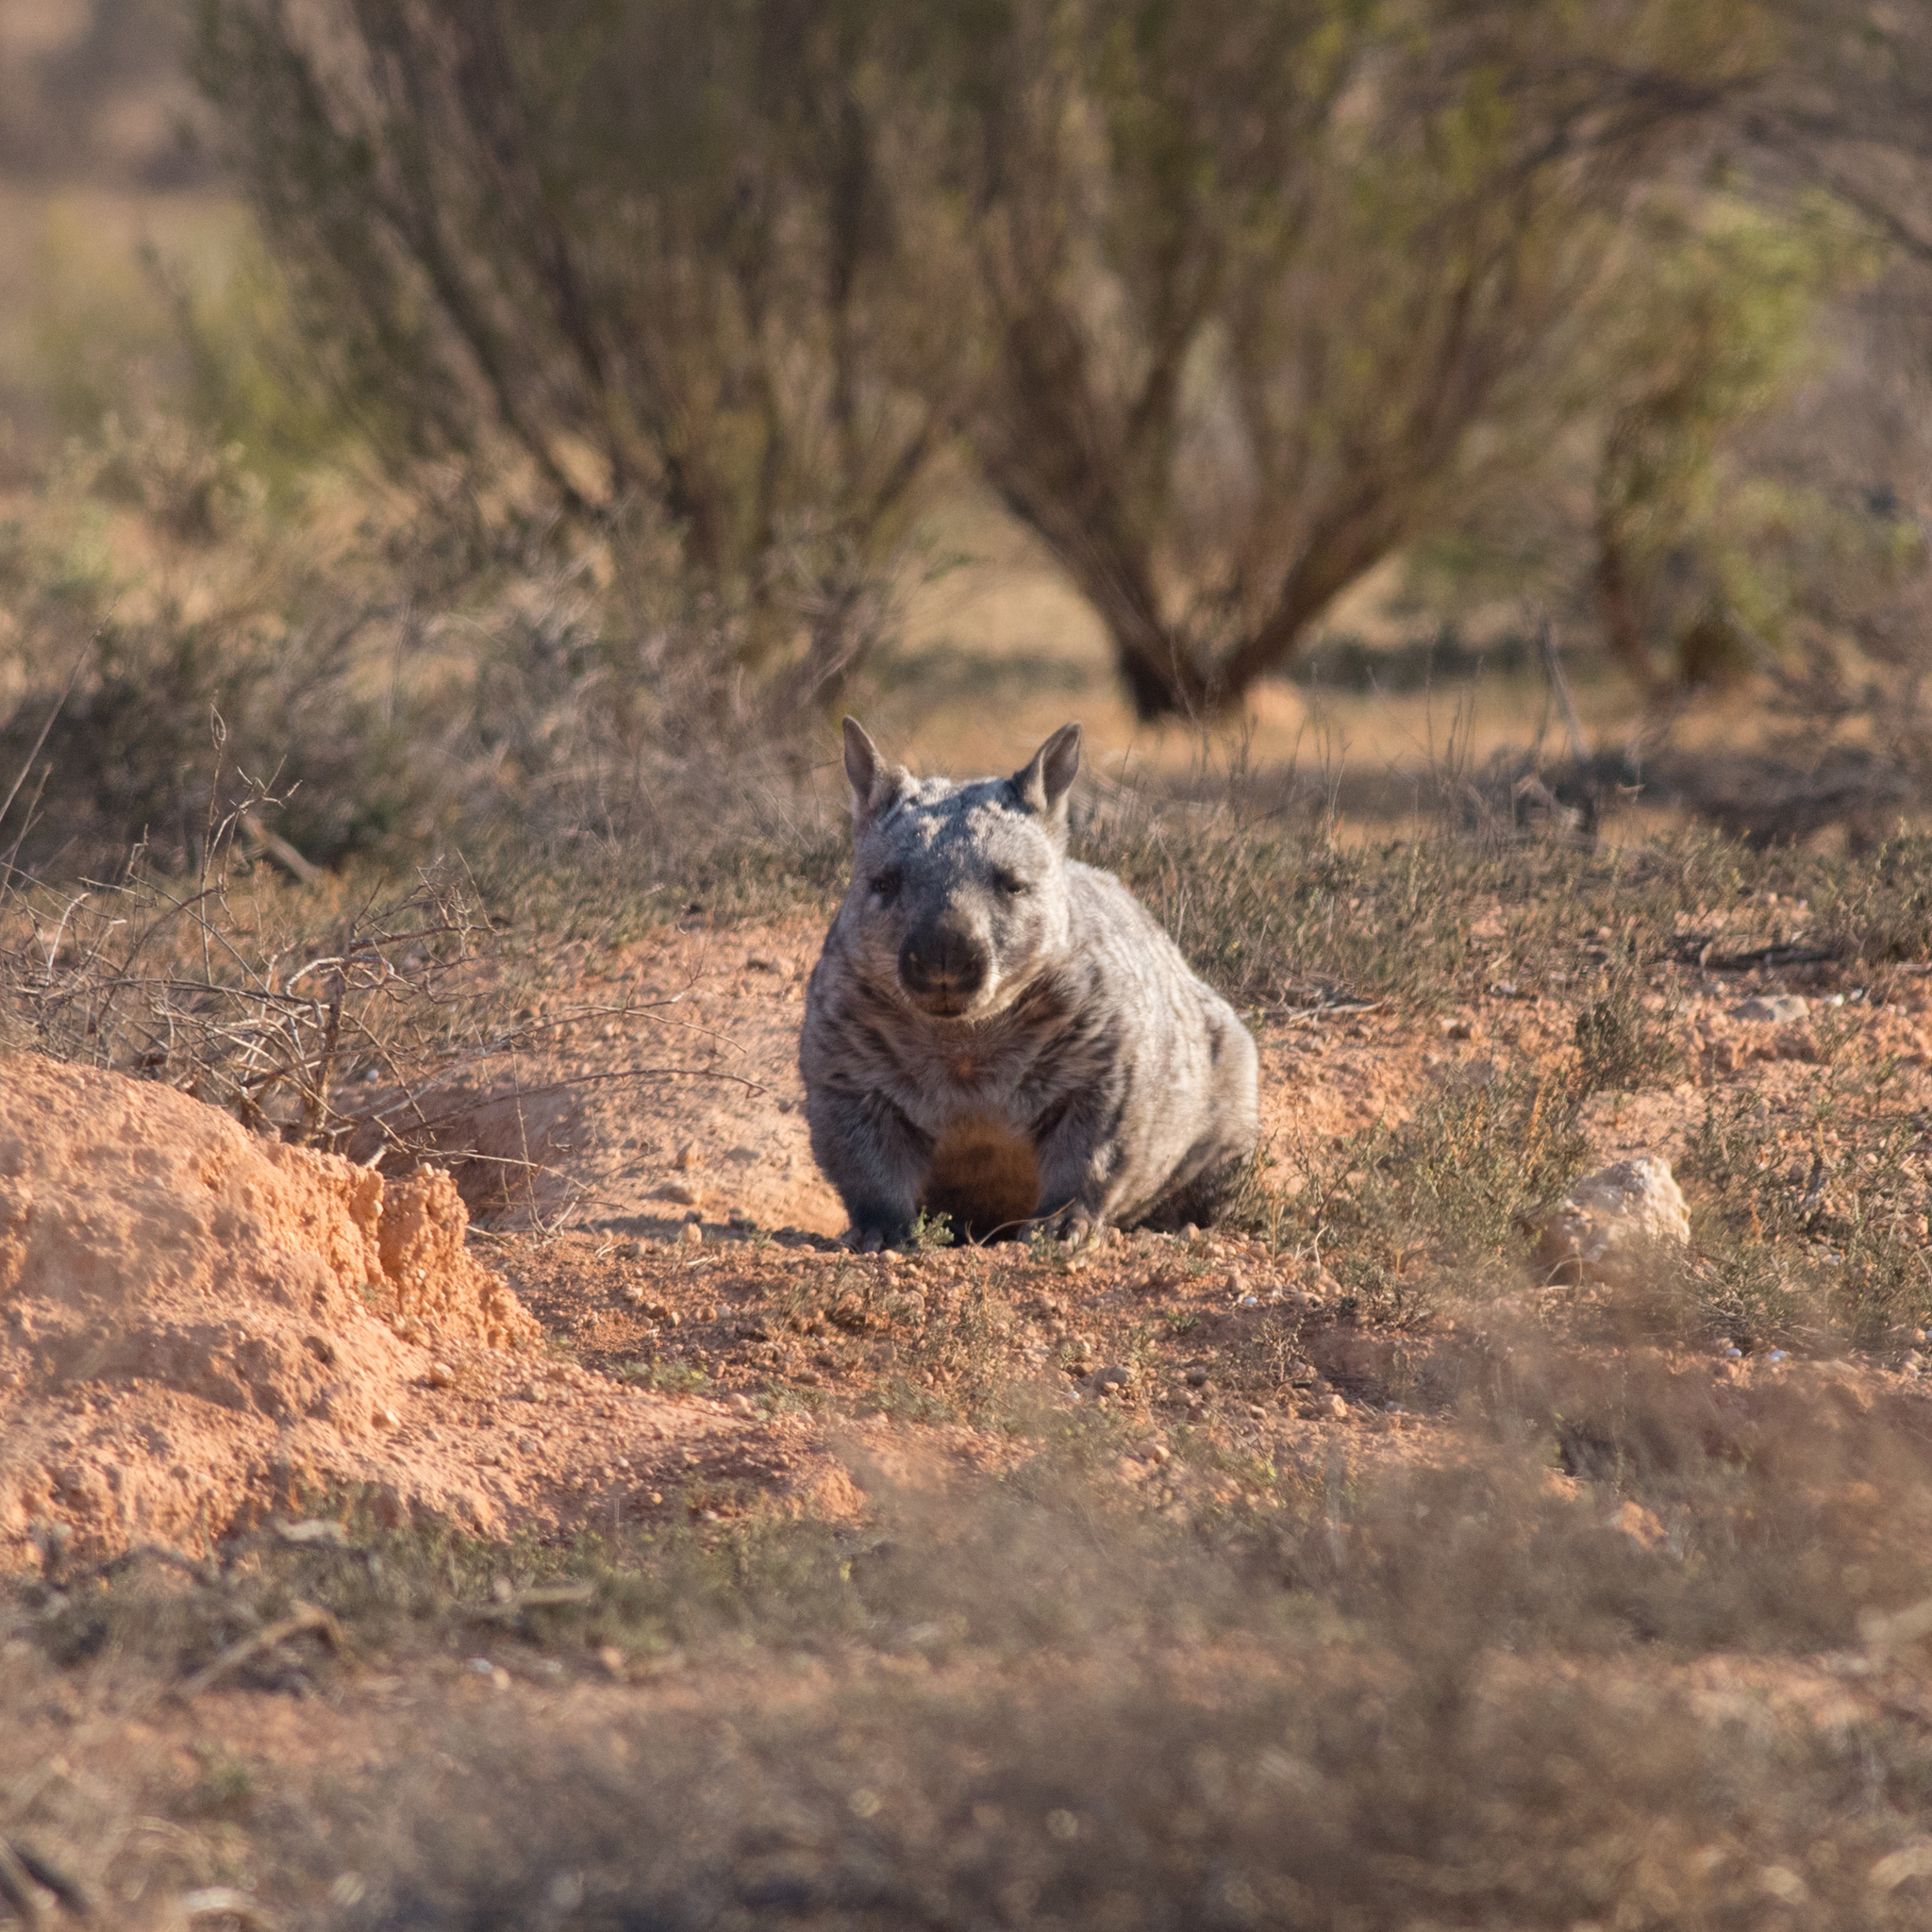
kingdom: Animalia
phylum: Chordata
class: Mammalia
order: Diprotodontia
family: Vombatidae
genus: Lasiorhinus
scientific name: Lasiorhinus latifrons
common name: Southern hairy-nosed wombat
